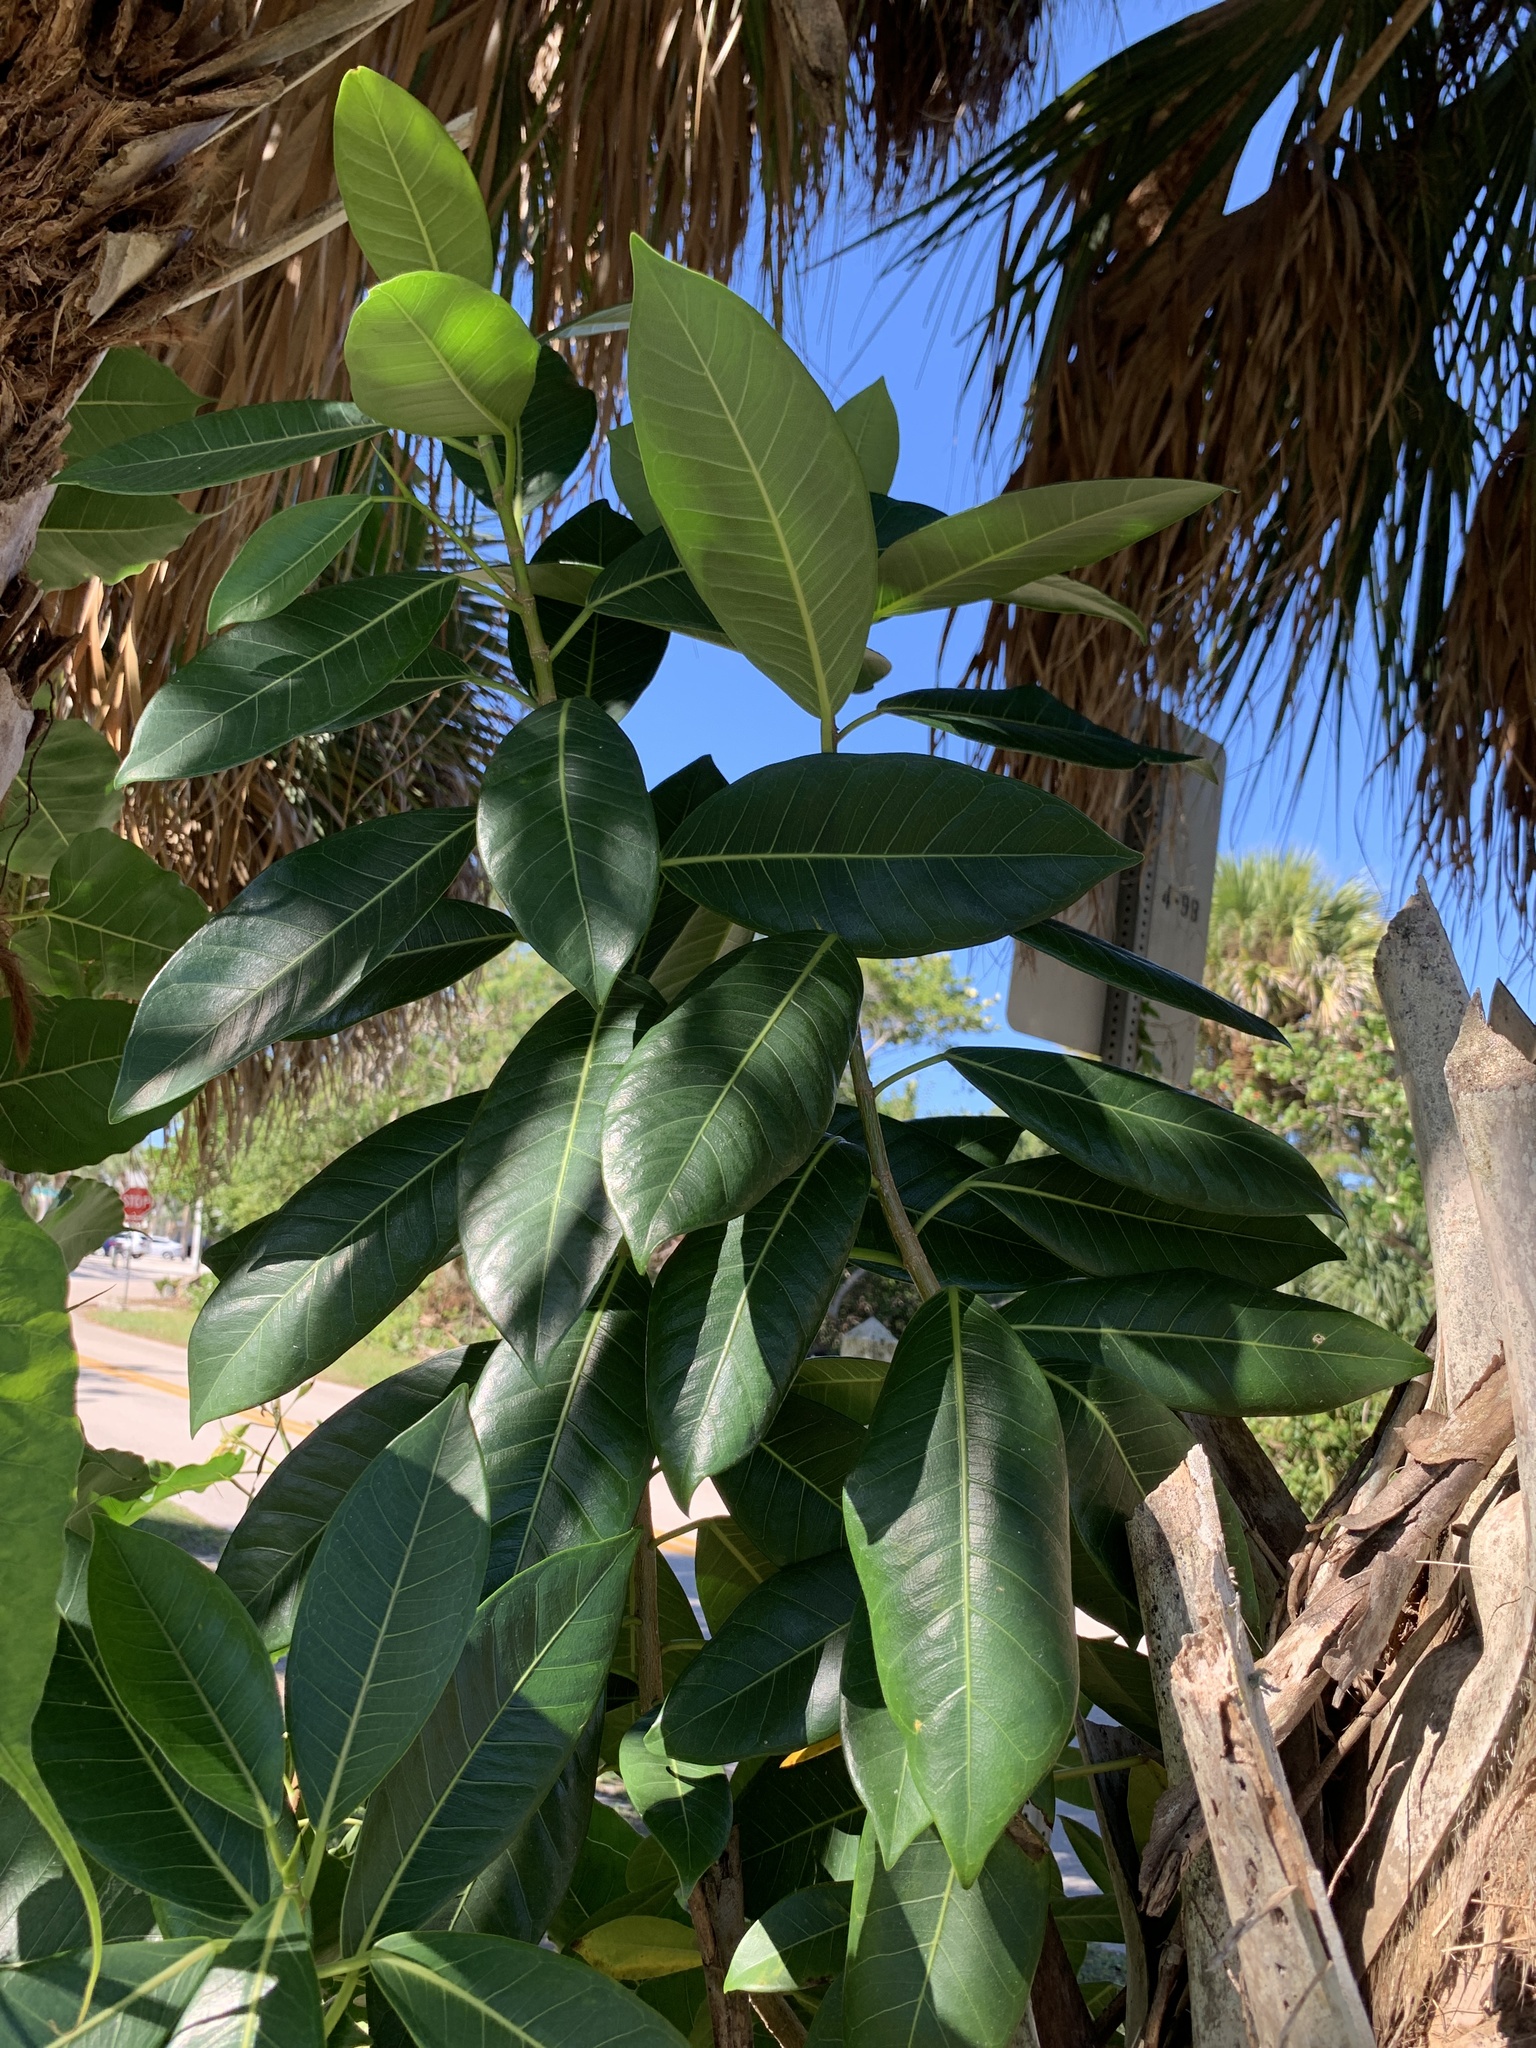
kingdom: Plantae
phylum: Tracheophyta
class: Magnoliopsida
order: Rosales
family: Moraceae
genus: Ficus
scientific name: Ficus aurea
